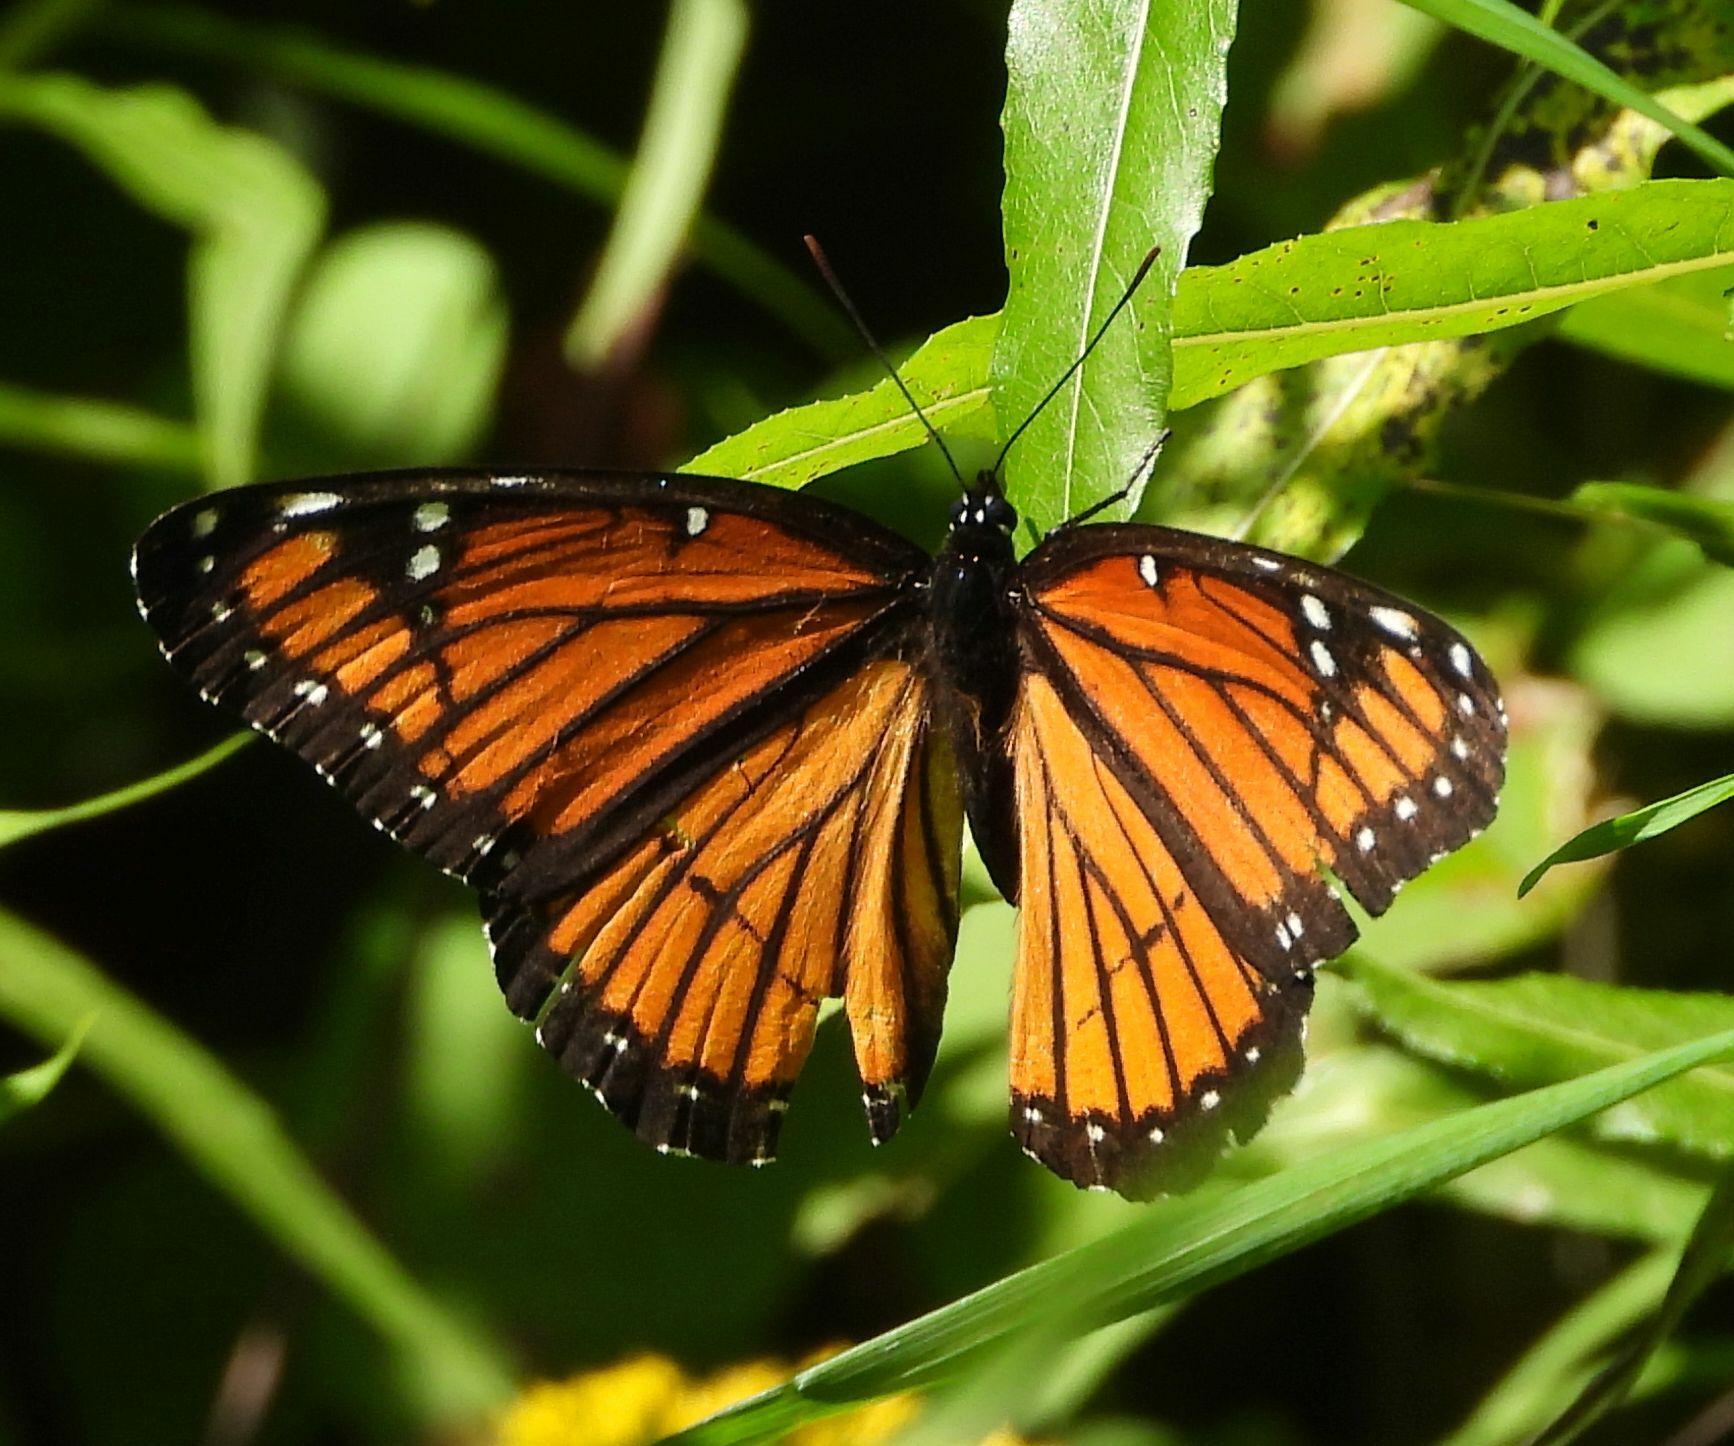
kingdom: Animalia
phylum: Arthropoda
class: Insecta
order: Lepidoptera
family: Nymphalidae
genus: Limenitis
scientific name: Limenitis archippus
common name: Viceroy
